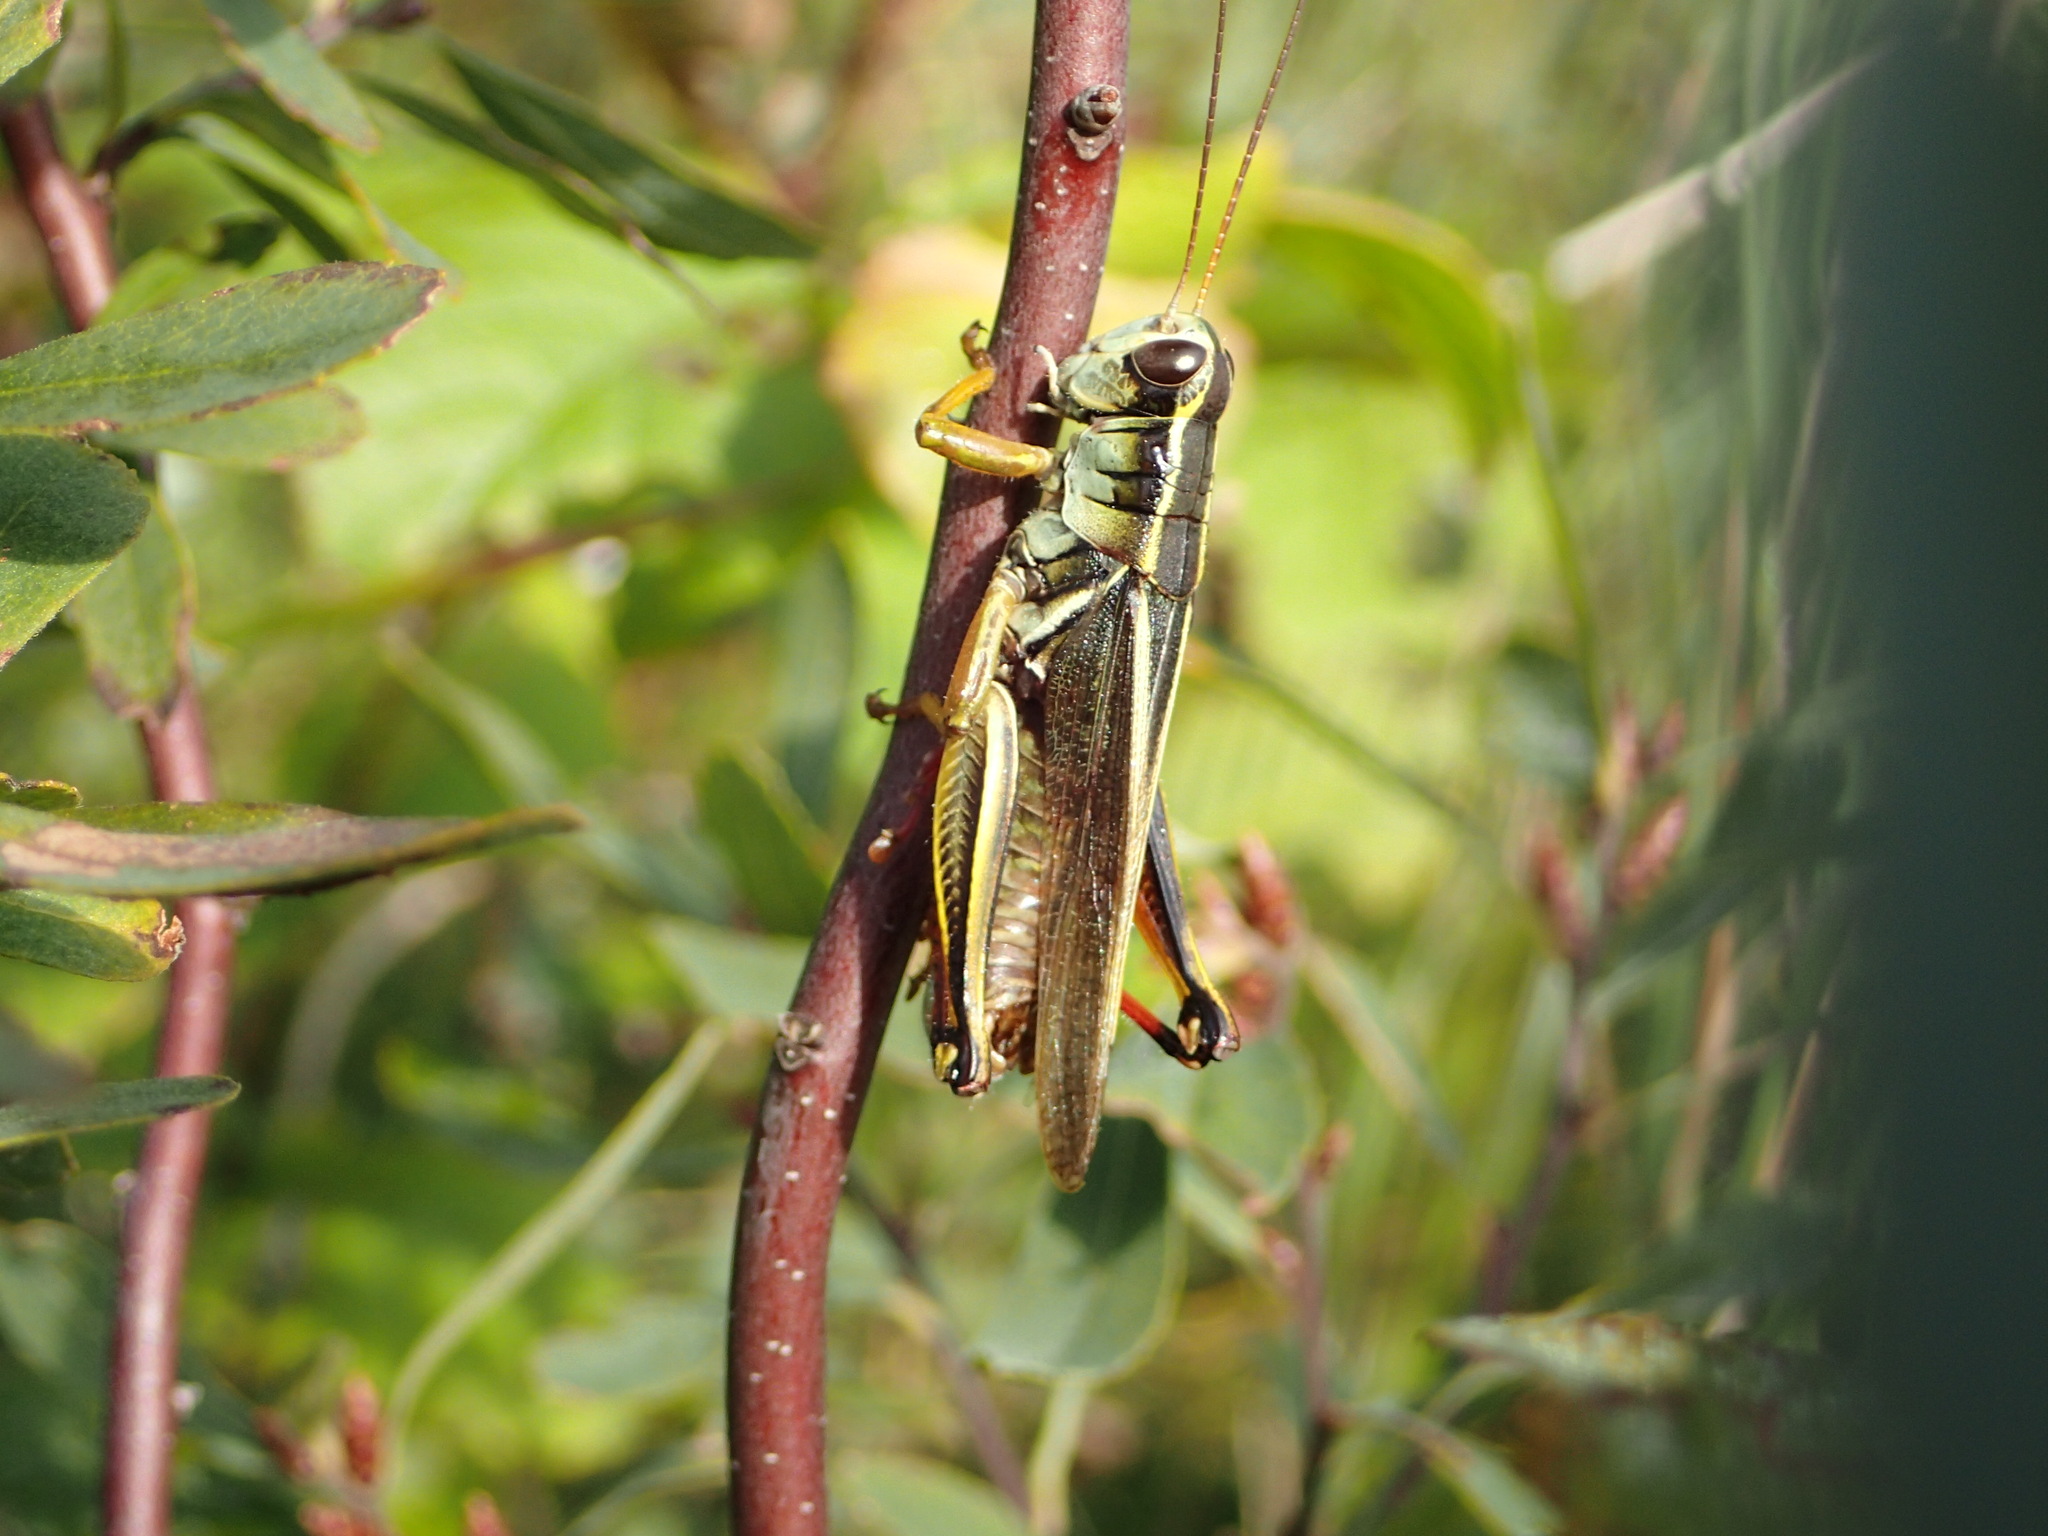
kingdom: Animalia
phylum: Arthropoda
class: Insecta
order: Orthoptera
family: Acrididae
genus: Melanoplus
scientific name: Melanoplus bivittatus
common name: Two-striped grasshopper
